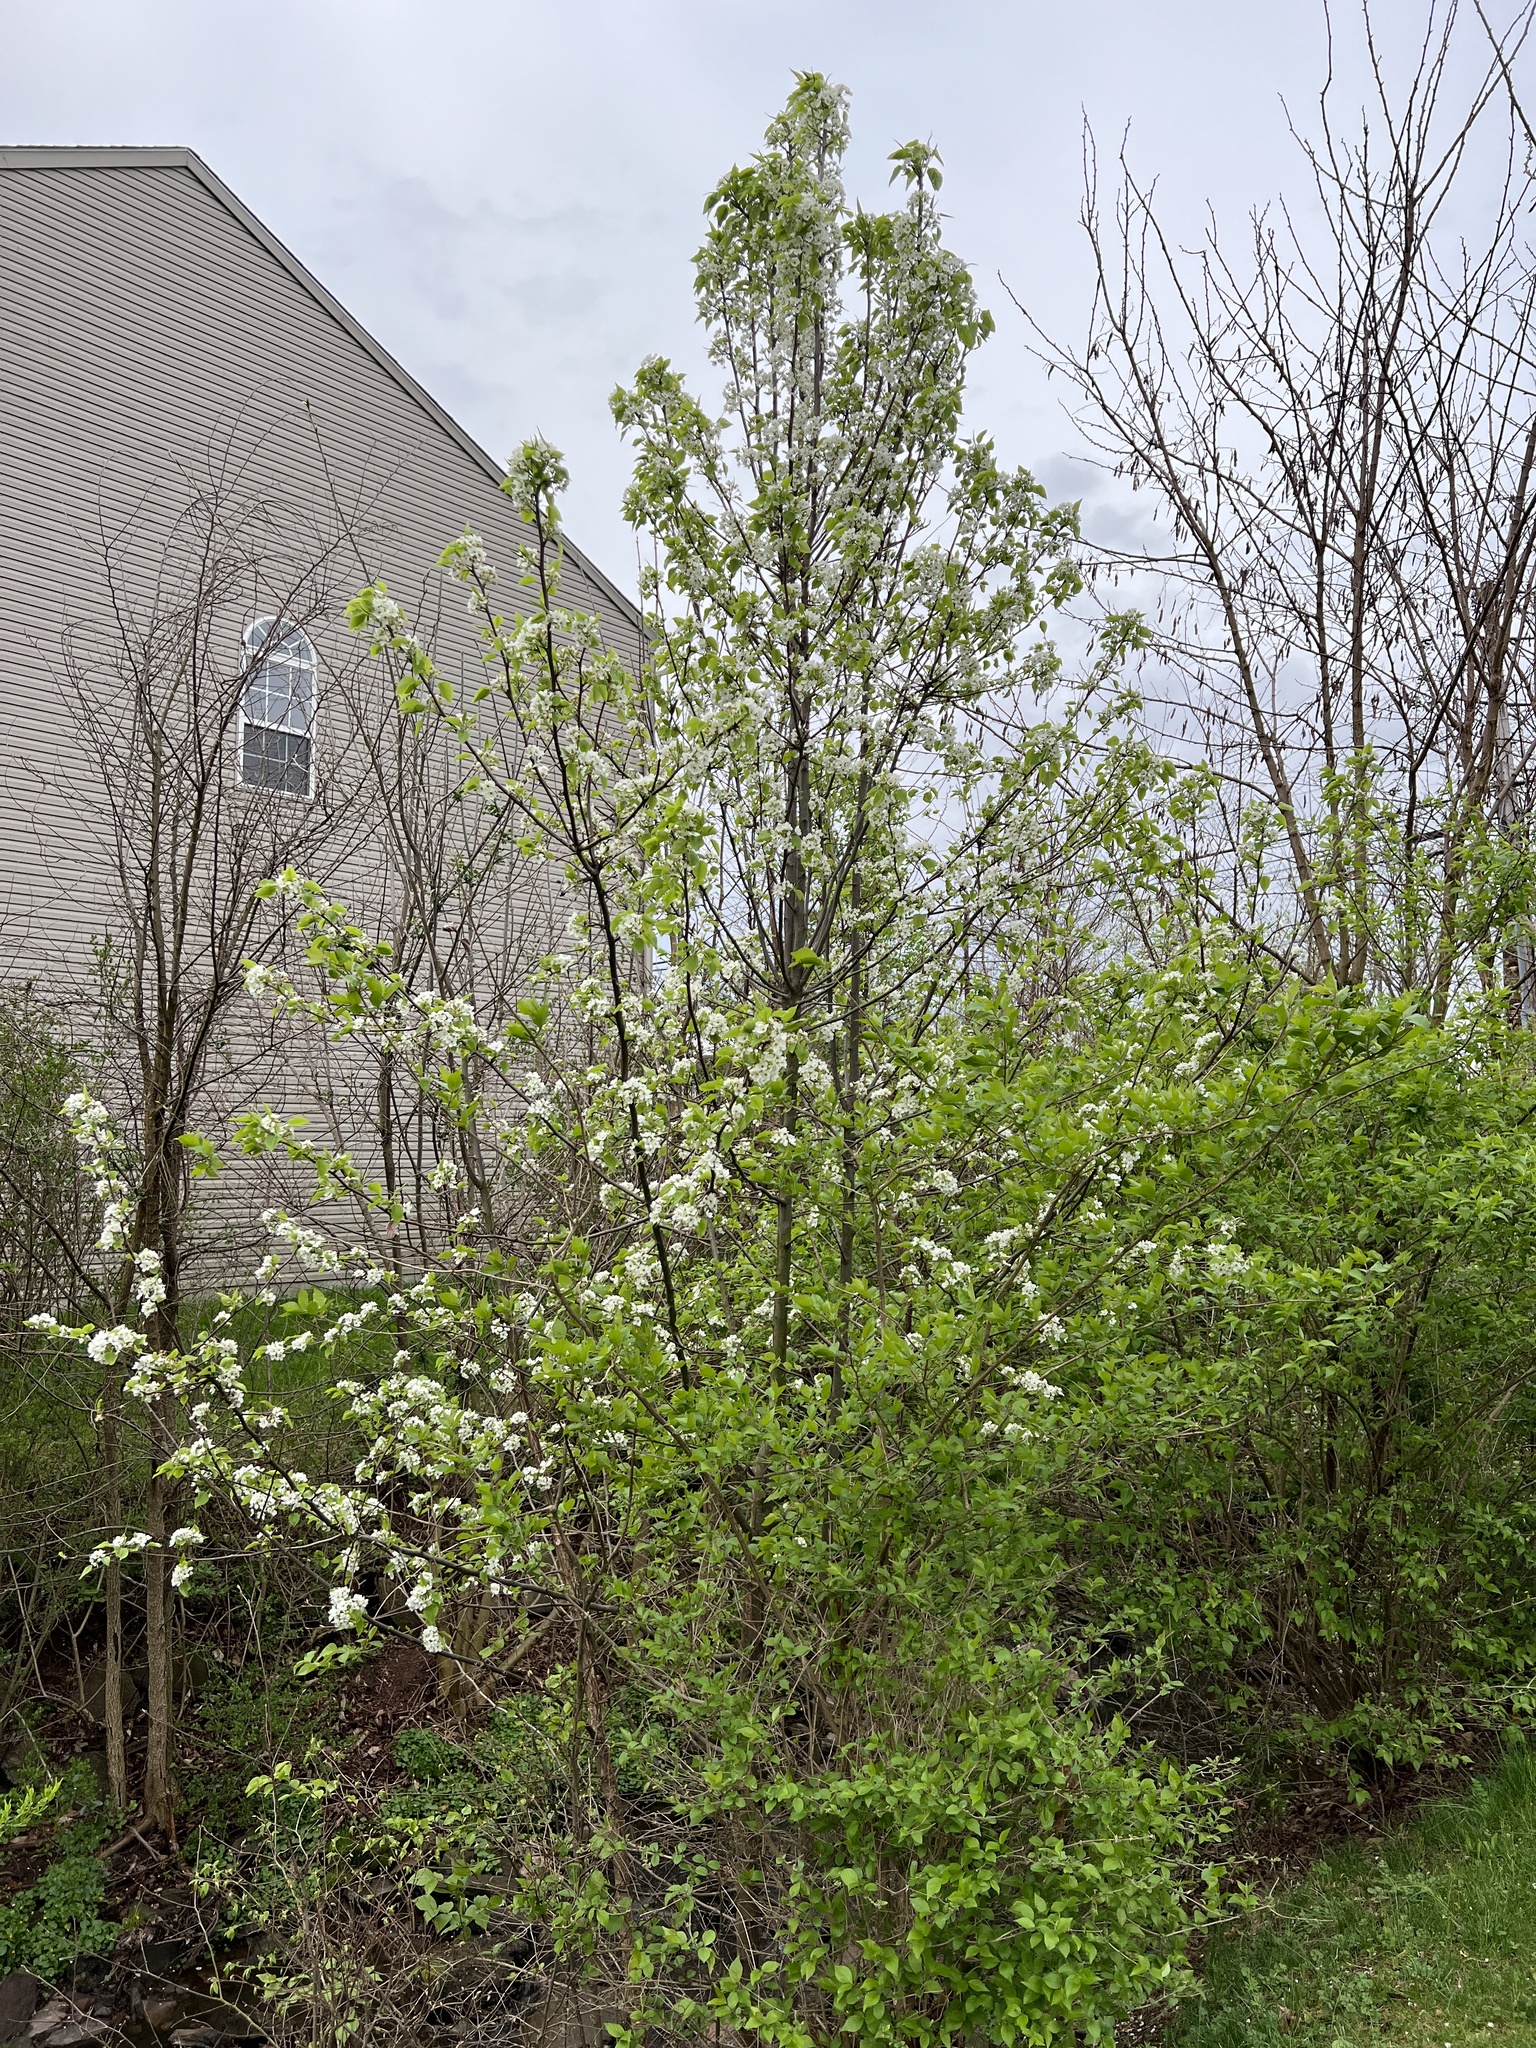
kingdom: Plantae
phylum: Tracheophyta
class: Magnoliopsida
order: Rosales
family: Rosaceae
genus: Pyrus
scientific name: Pyrus calleryana
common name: Callery pear
